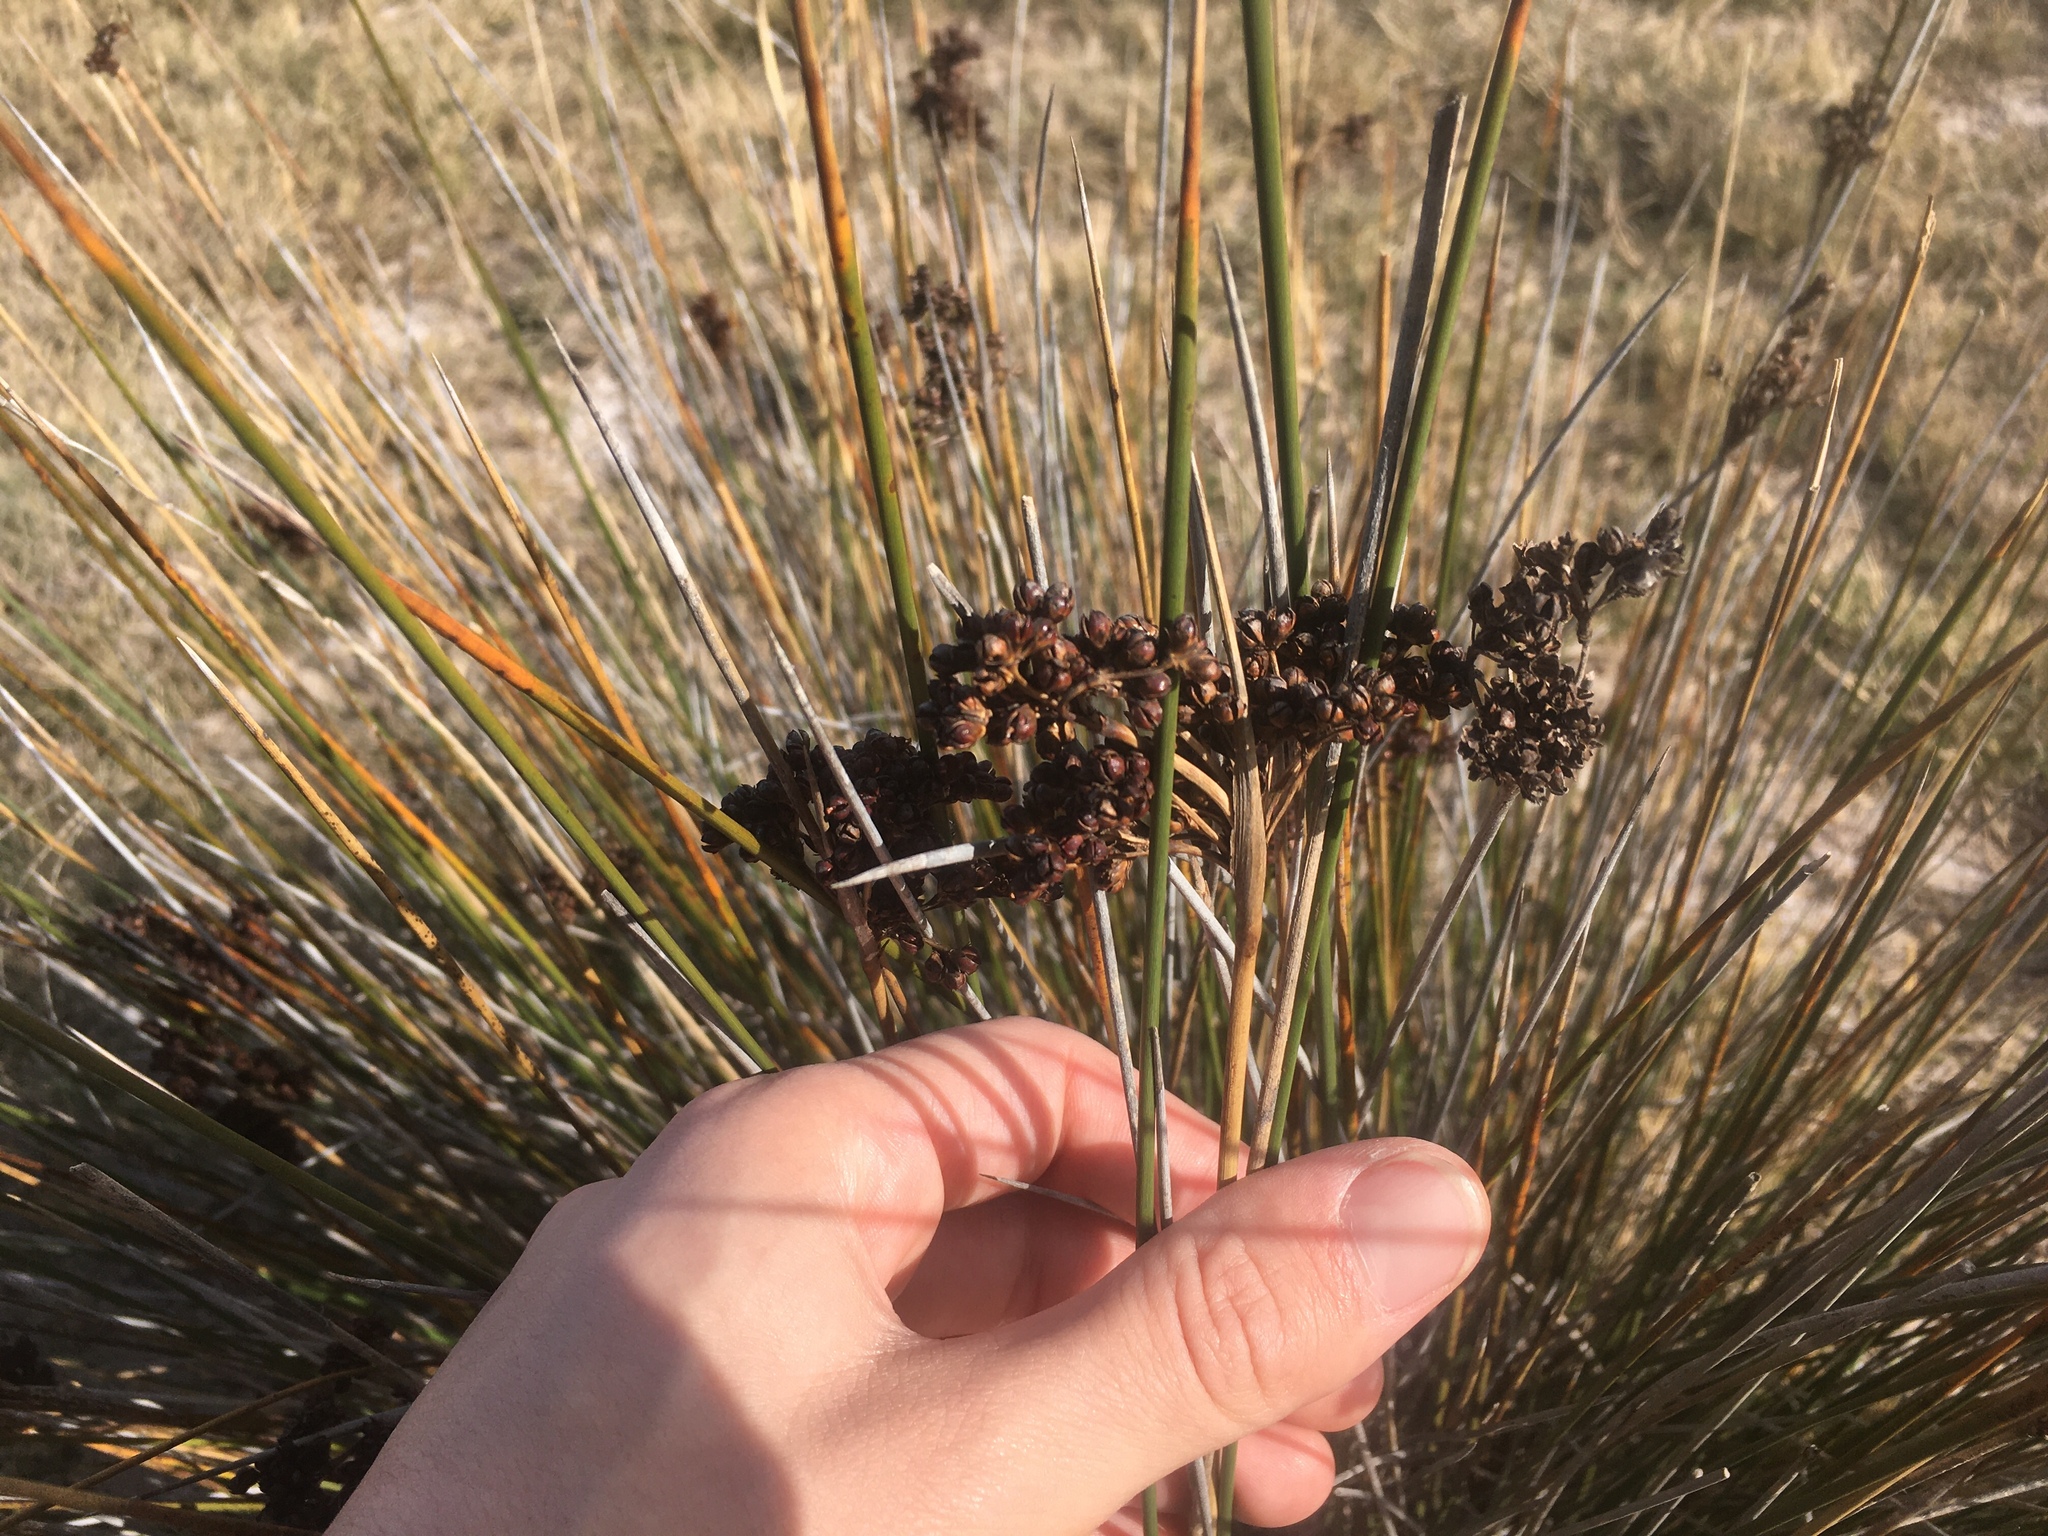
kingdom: Plantae
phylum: Tracheophyta
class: Liliopsida
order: Poales
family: Juncaceae
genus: Juncus
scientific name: Juncus acutus
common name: Sharp rush
